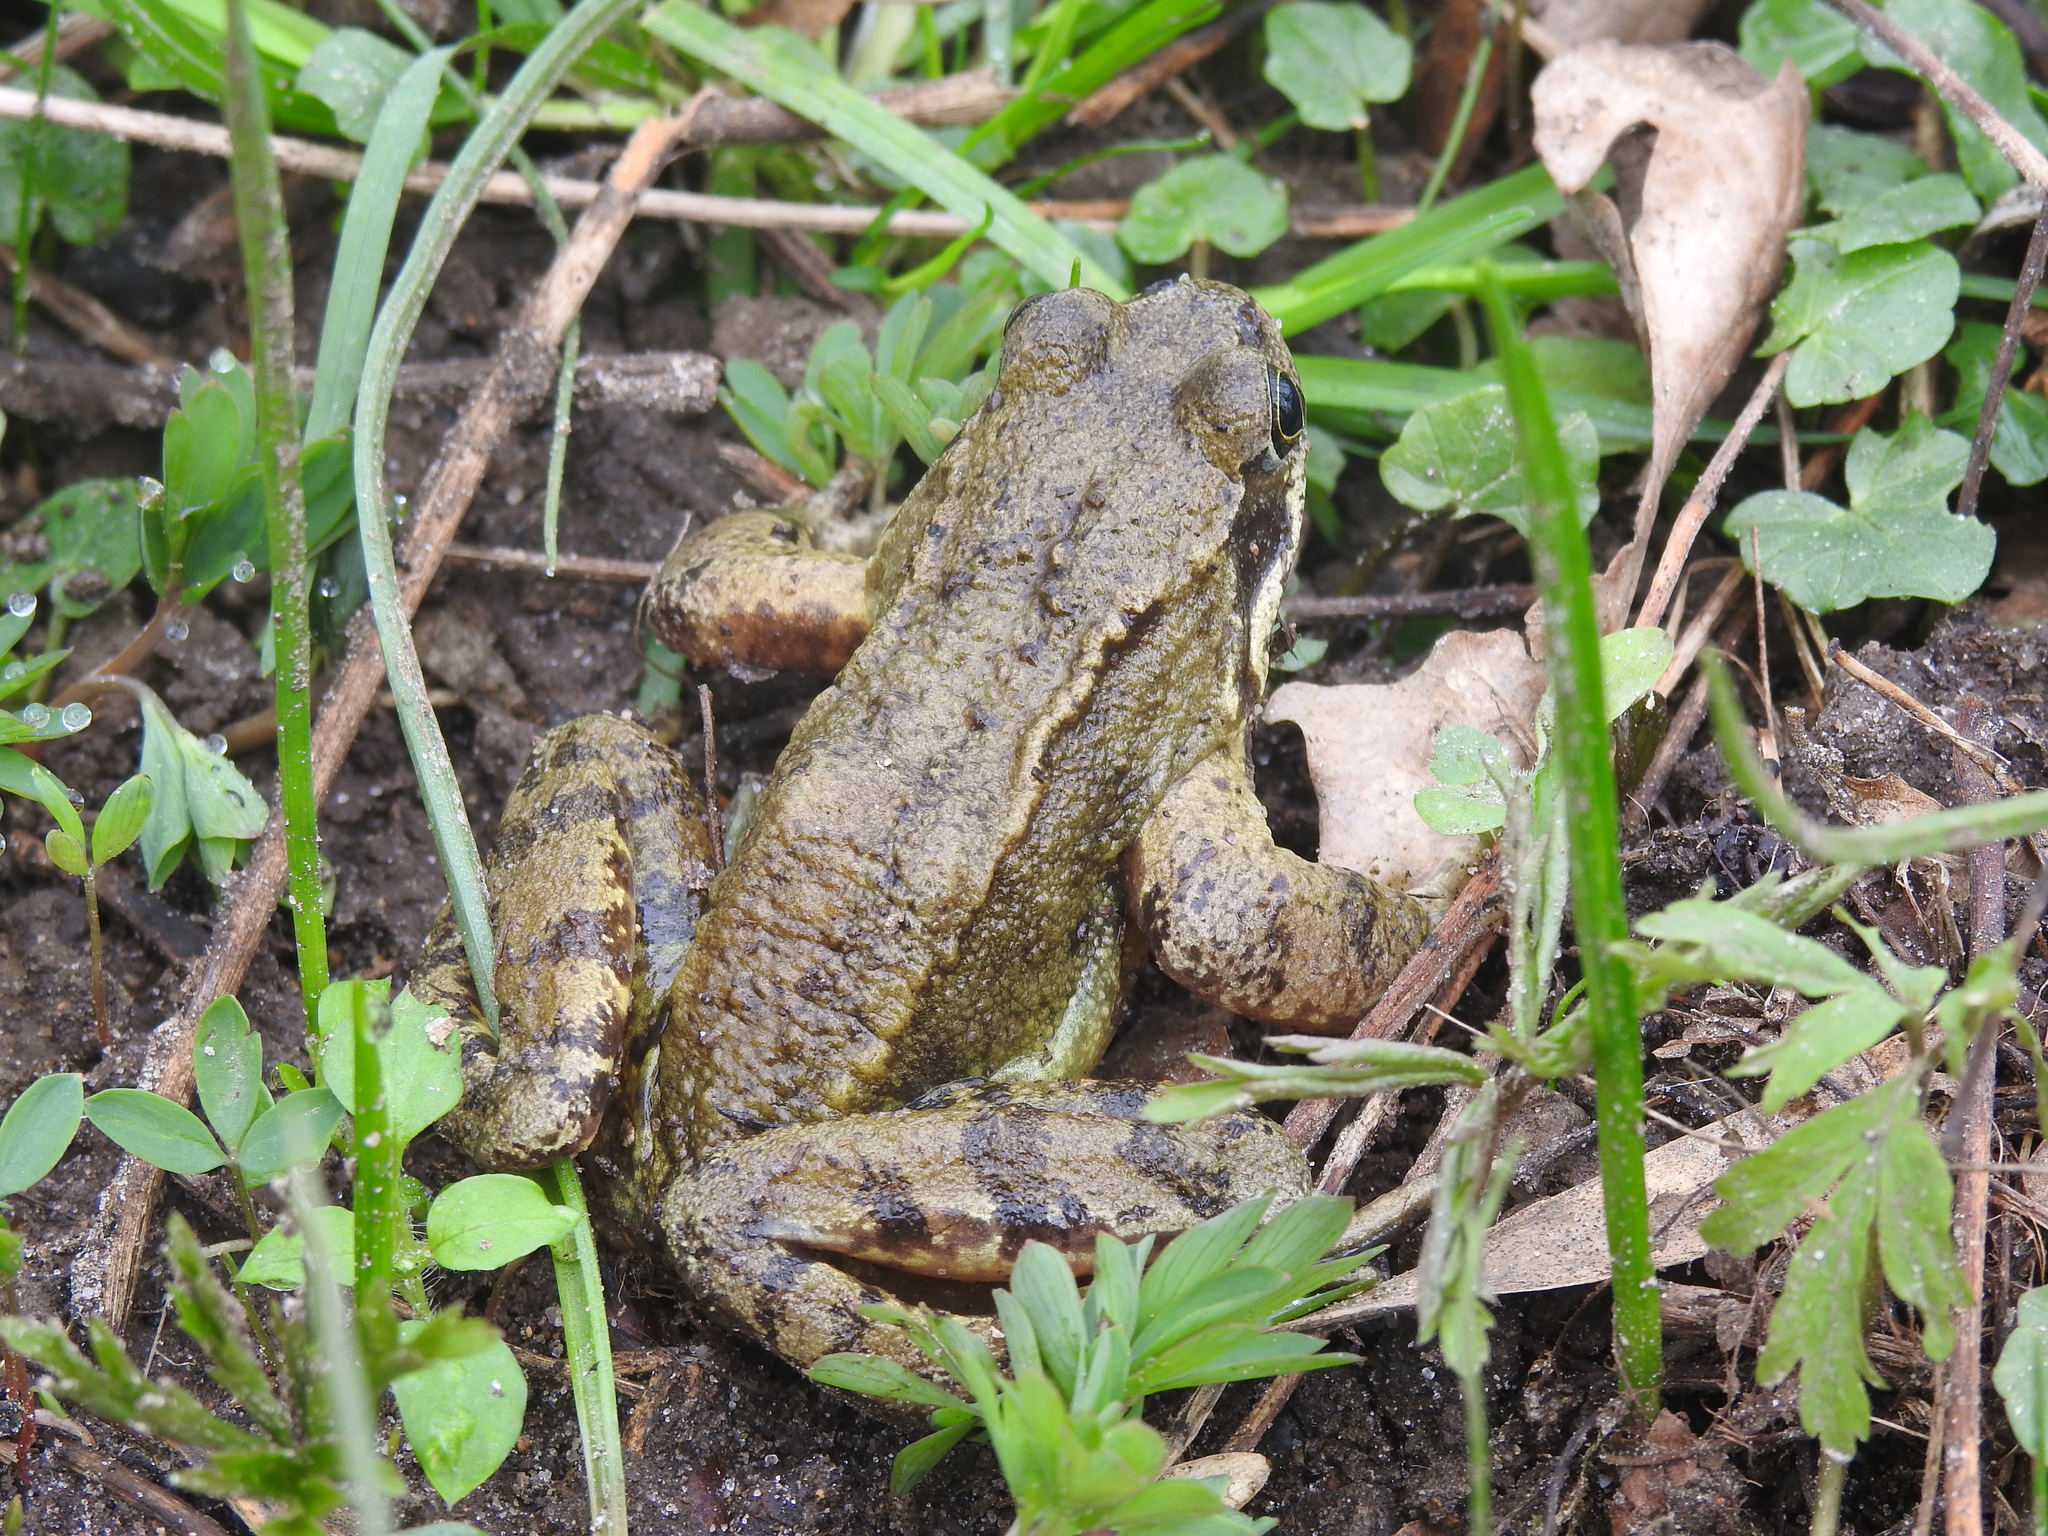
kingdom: Animalia
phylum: Chordata
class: Amphibia
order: Anura
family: Ranidae
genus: Rana
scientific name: Rana temporaria
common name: Common frog
